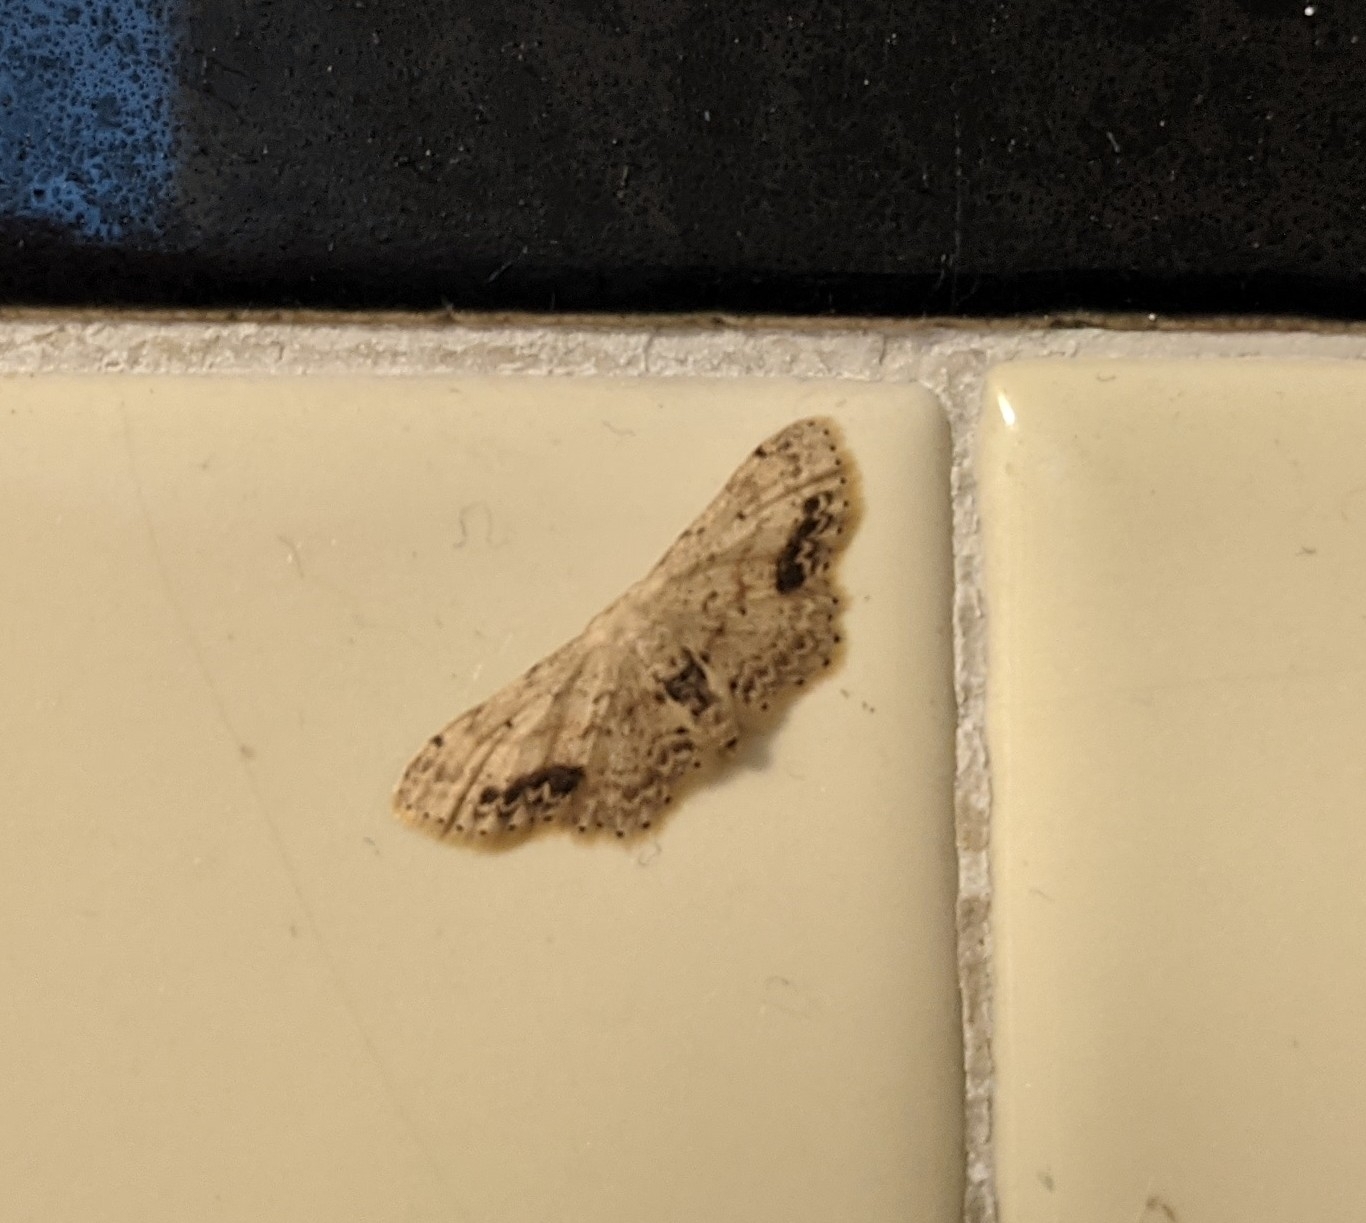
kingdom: Animalia
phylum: Arthropoda
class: Insecta
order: Lepidoptera
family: Geometridae
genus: Idaea
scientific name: Idaea dimidiata
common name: Single-dotted wave
